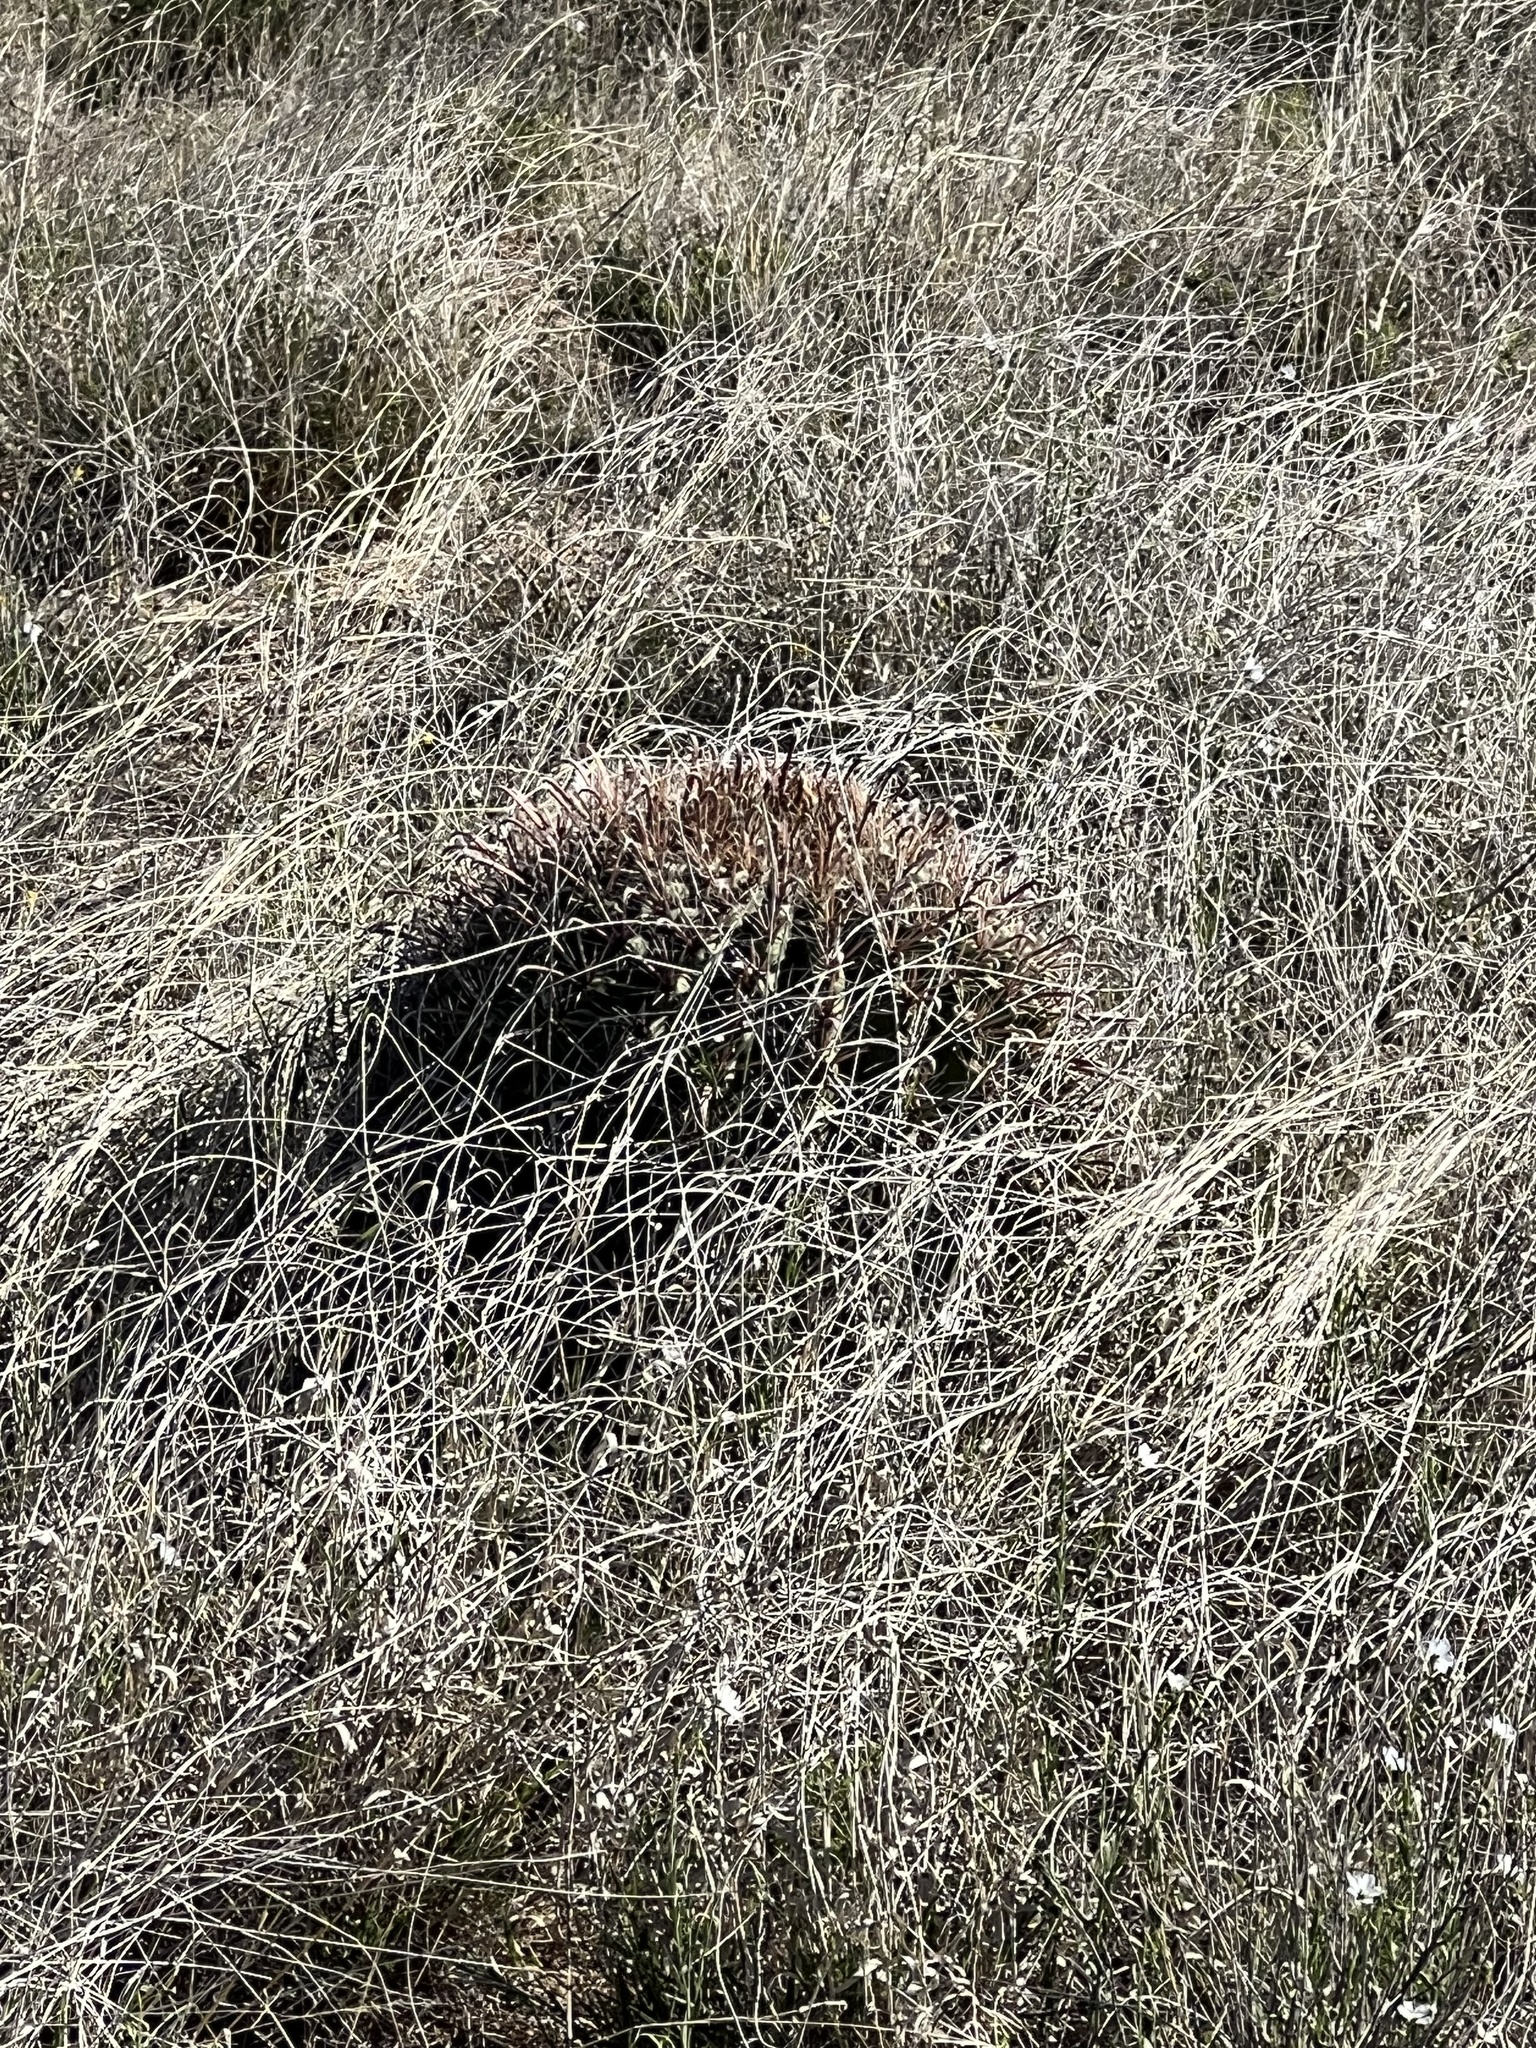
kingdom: Plantae
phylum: Tracheophyta
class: Magnoliopsida
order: Caryophyllales
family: Cactaceae
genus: Ferocactus
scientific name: Ferocactus wislizeni
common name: Candy barrel cactus
